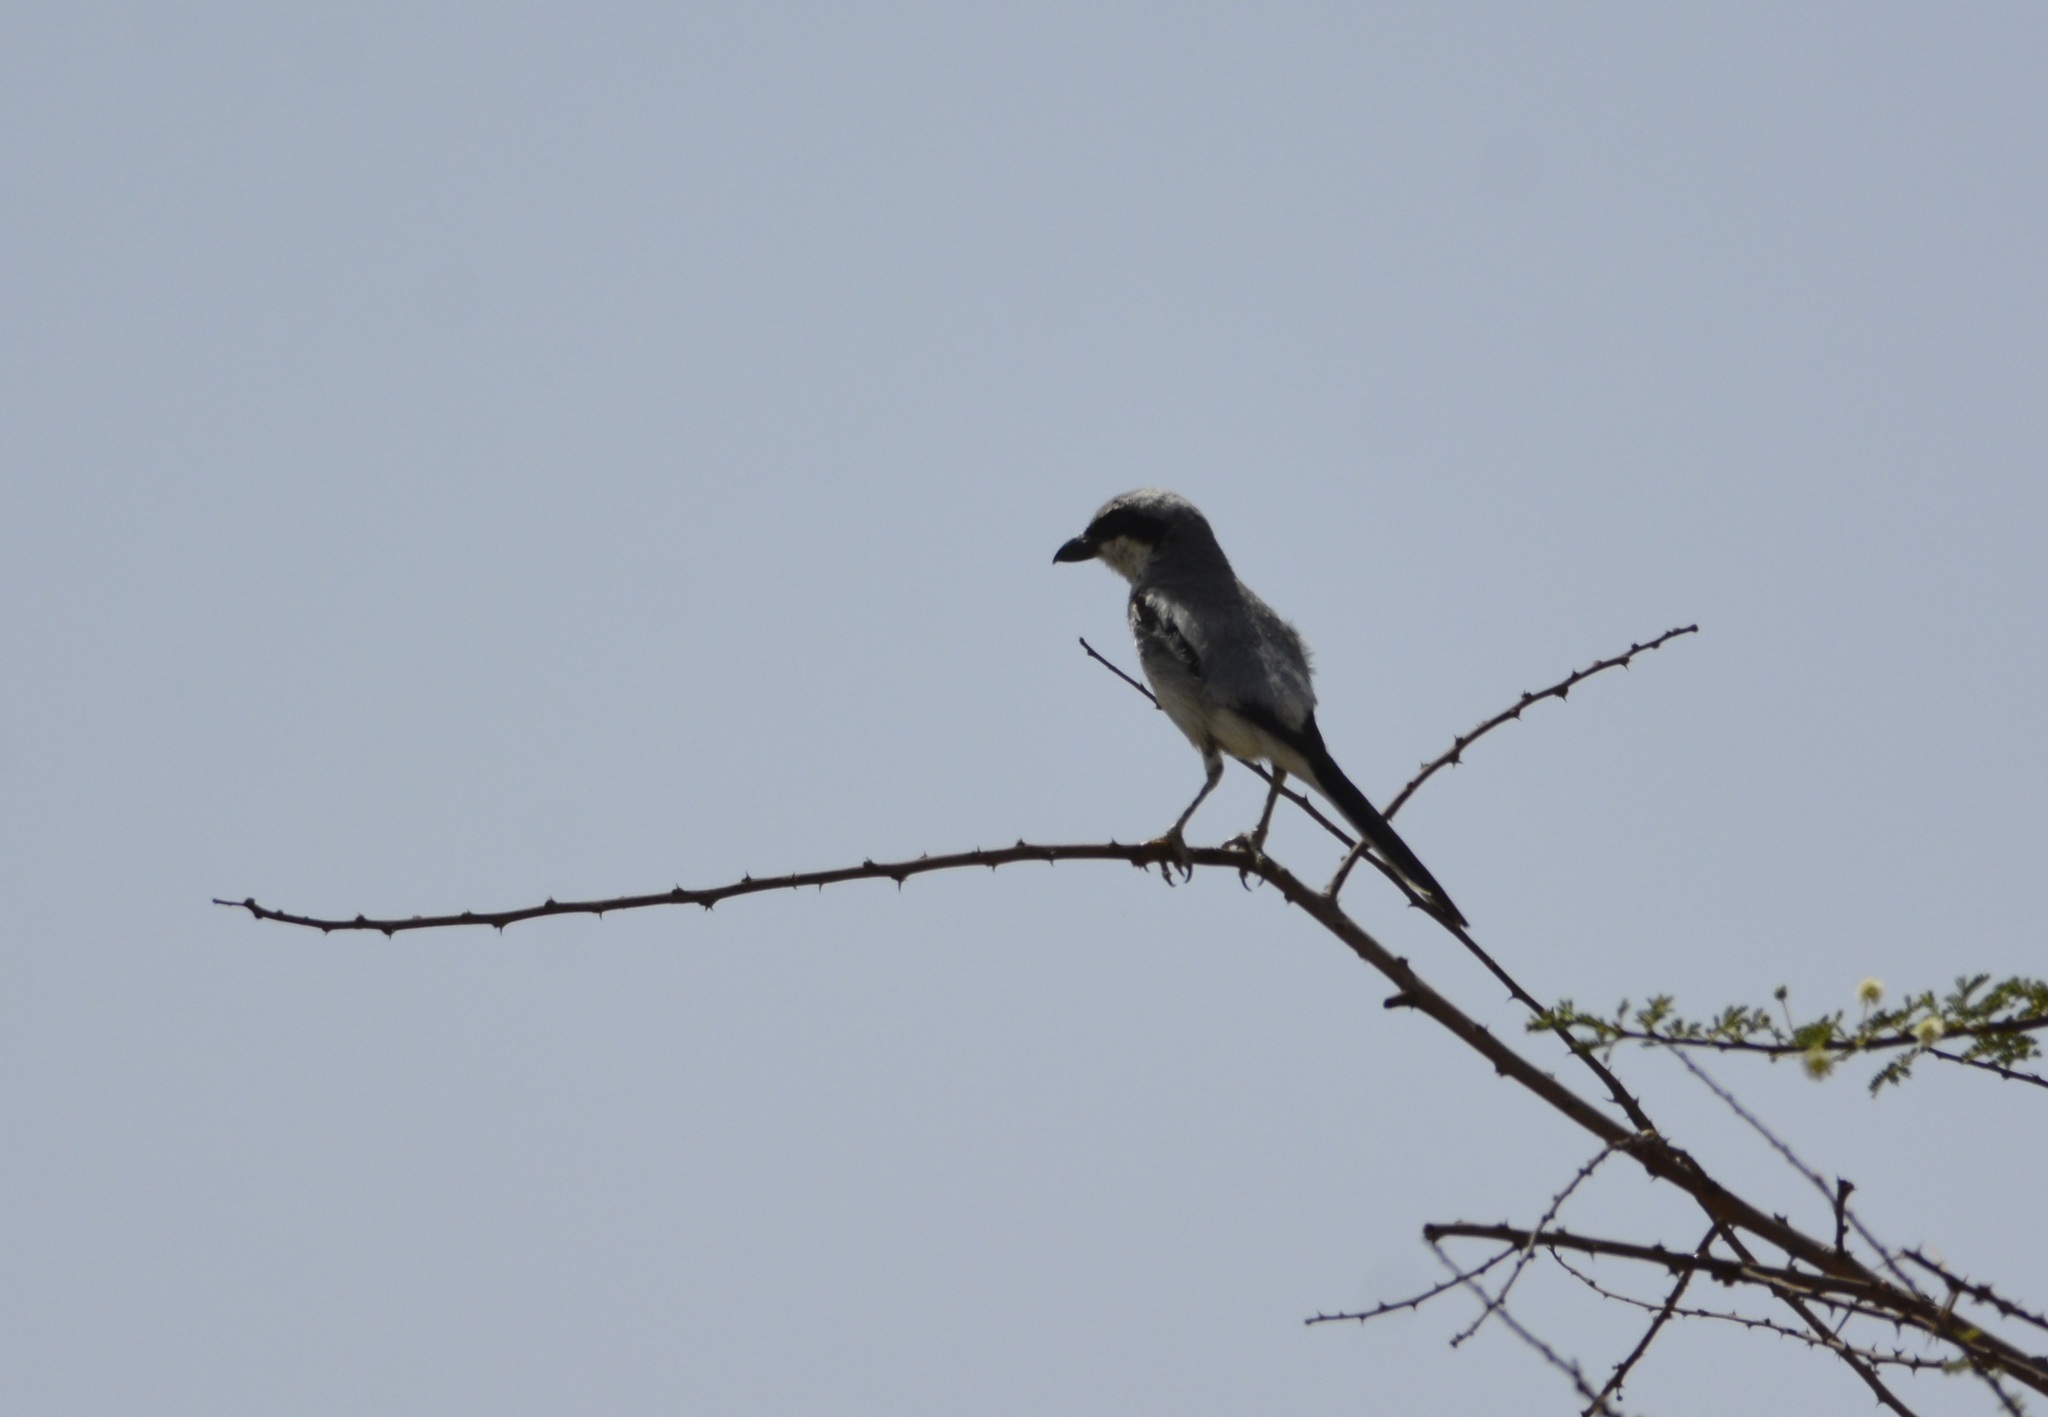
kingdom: Animalia
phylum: Chordata
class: Aves
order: Passeriformes
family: Laniidae
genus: Lanius
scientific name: Lanius excubitor
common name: Great grey shrike
